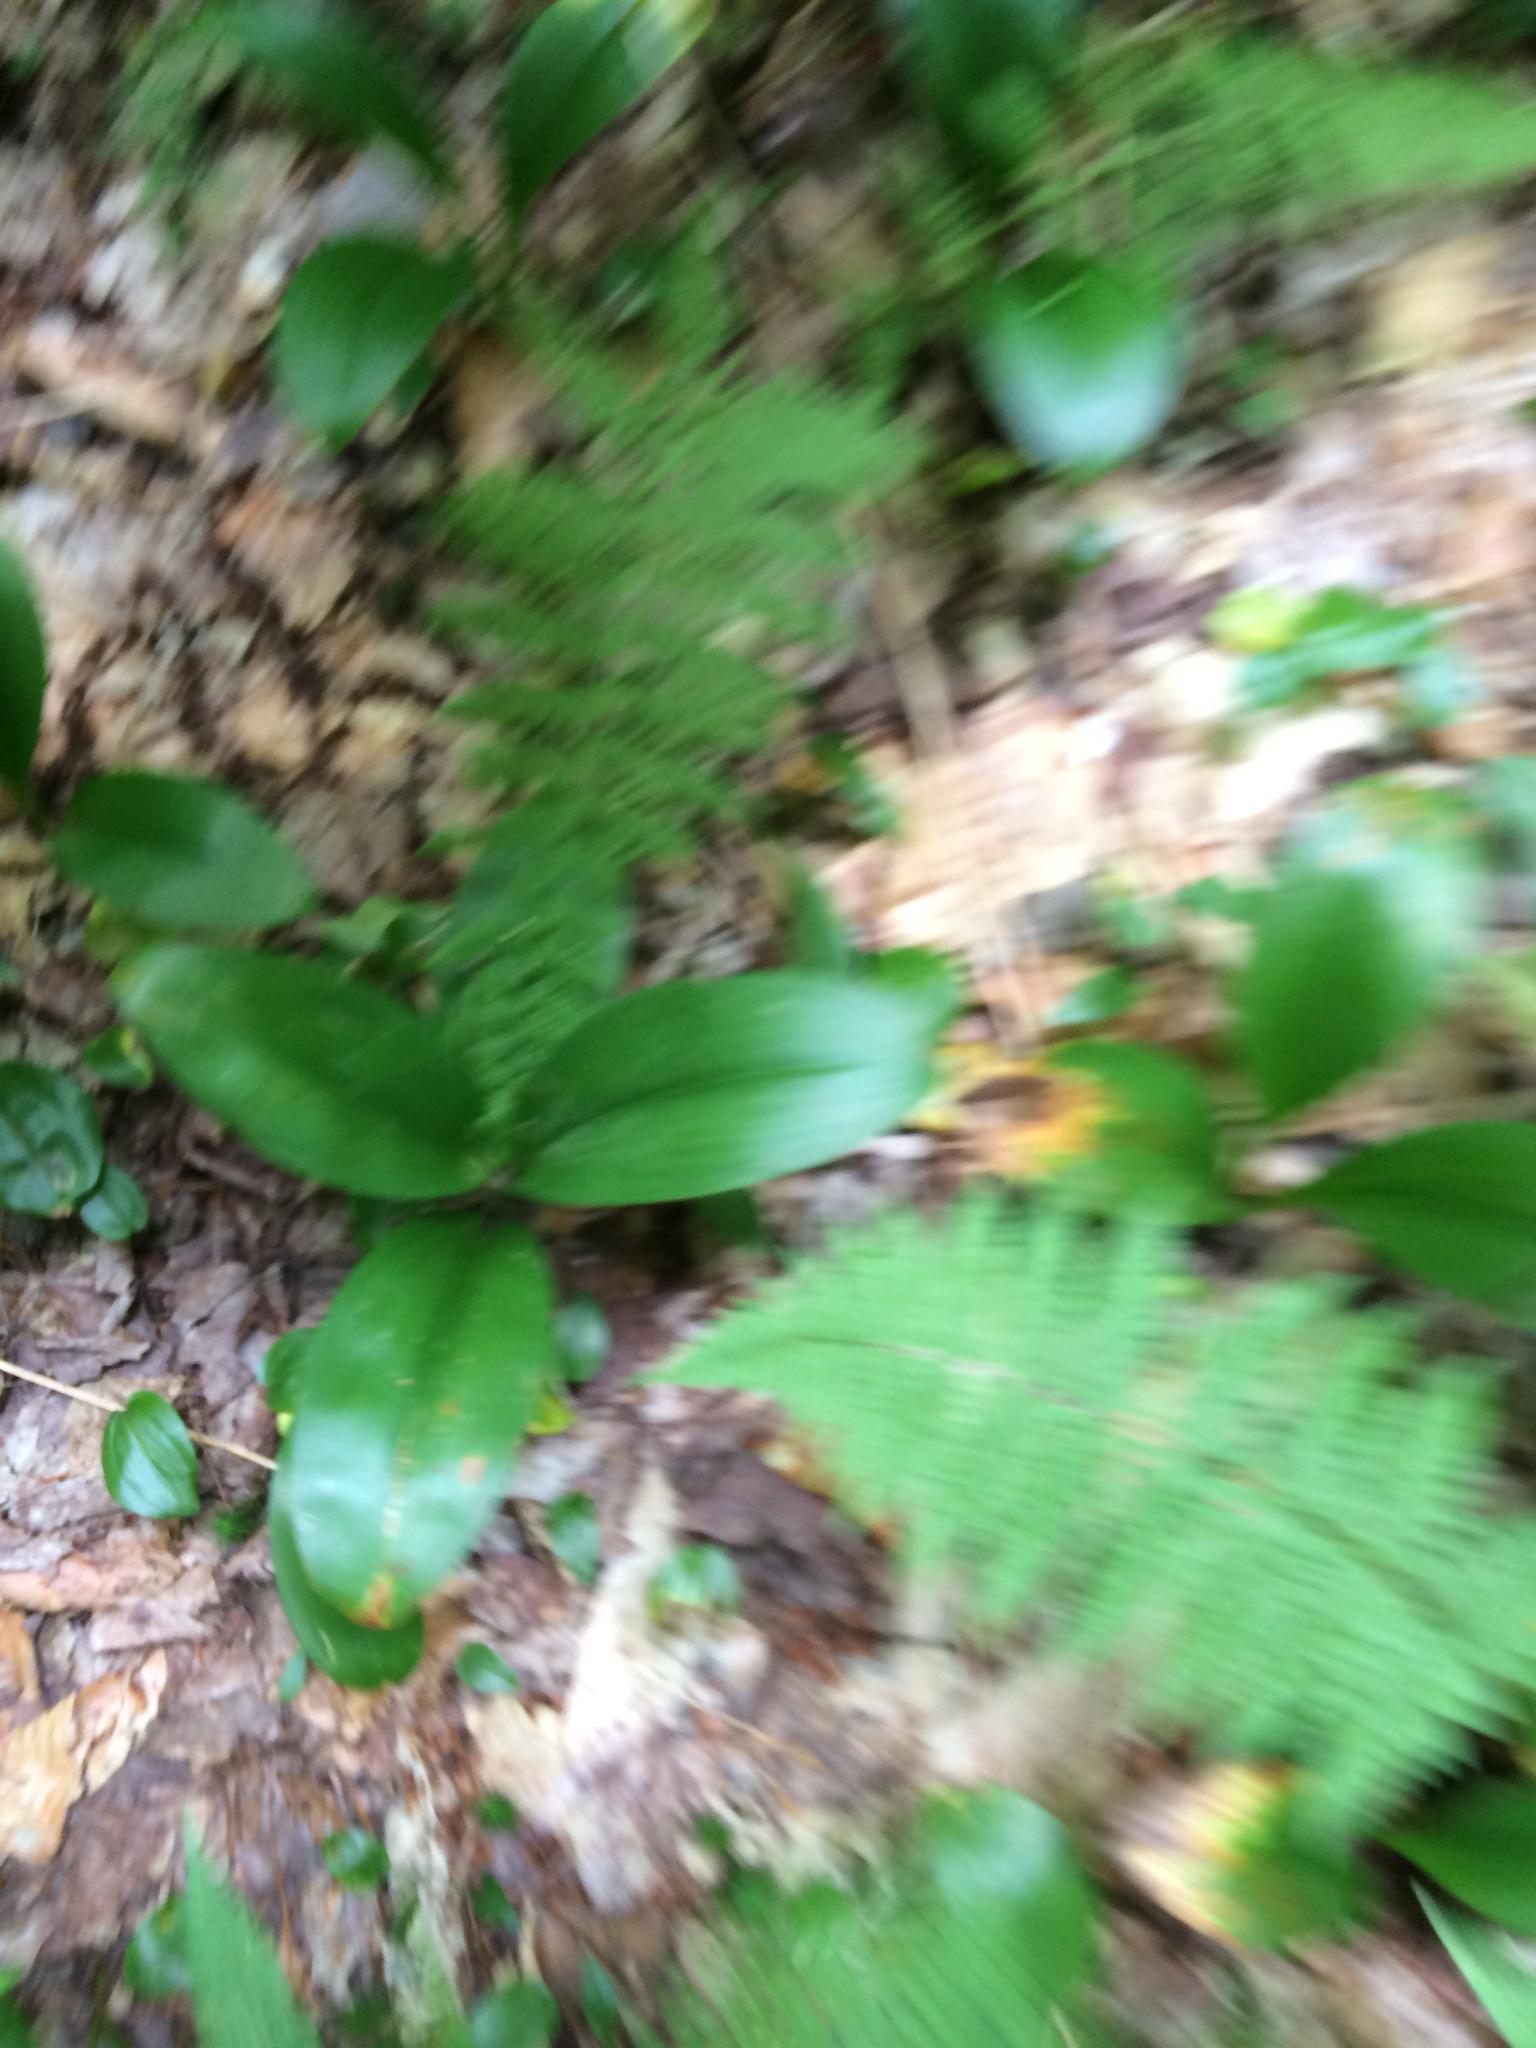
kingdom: Plantae
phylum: Tracheophyta
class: Liliopsida
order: Liliales
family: Liliaceae
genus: Clintonia
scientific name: Clintonia borealis
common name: Yellow clintonia
